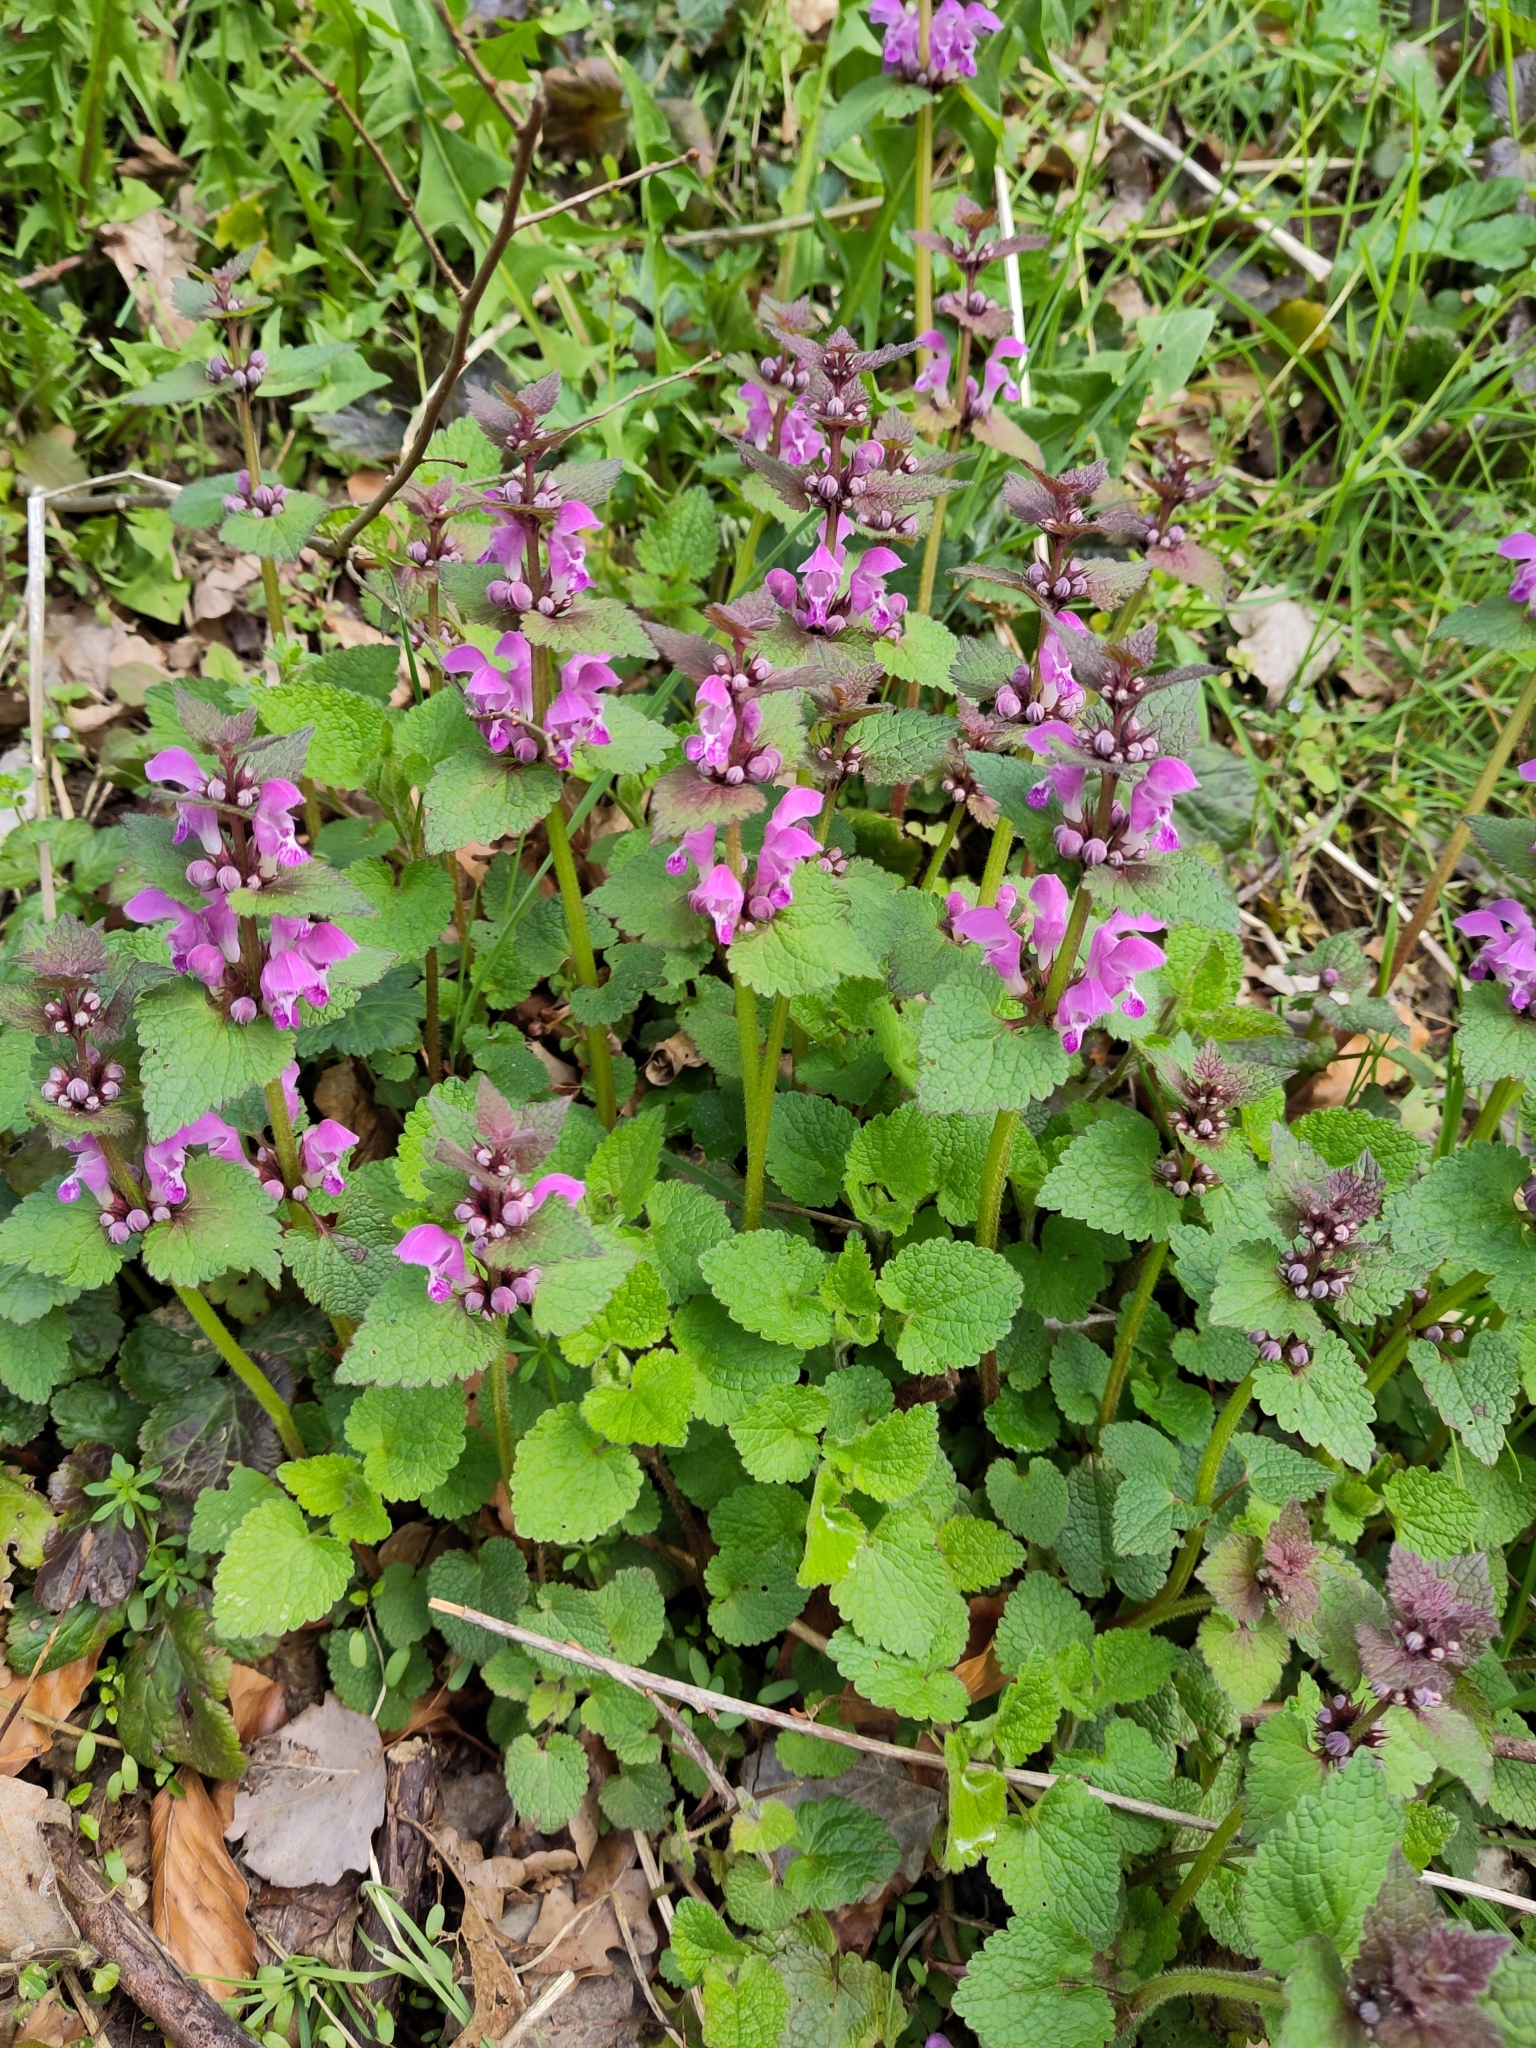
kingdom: Plantae
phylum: Tracheophyta
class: Magnoliopsida
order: Lamiales
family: Lamiaceae
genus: Lamium
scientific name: Lamium maculatum
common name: Spotted dead-nettle
